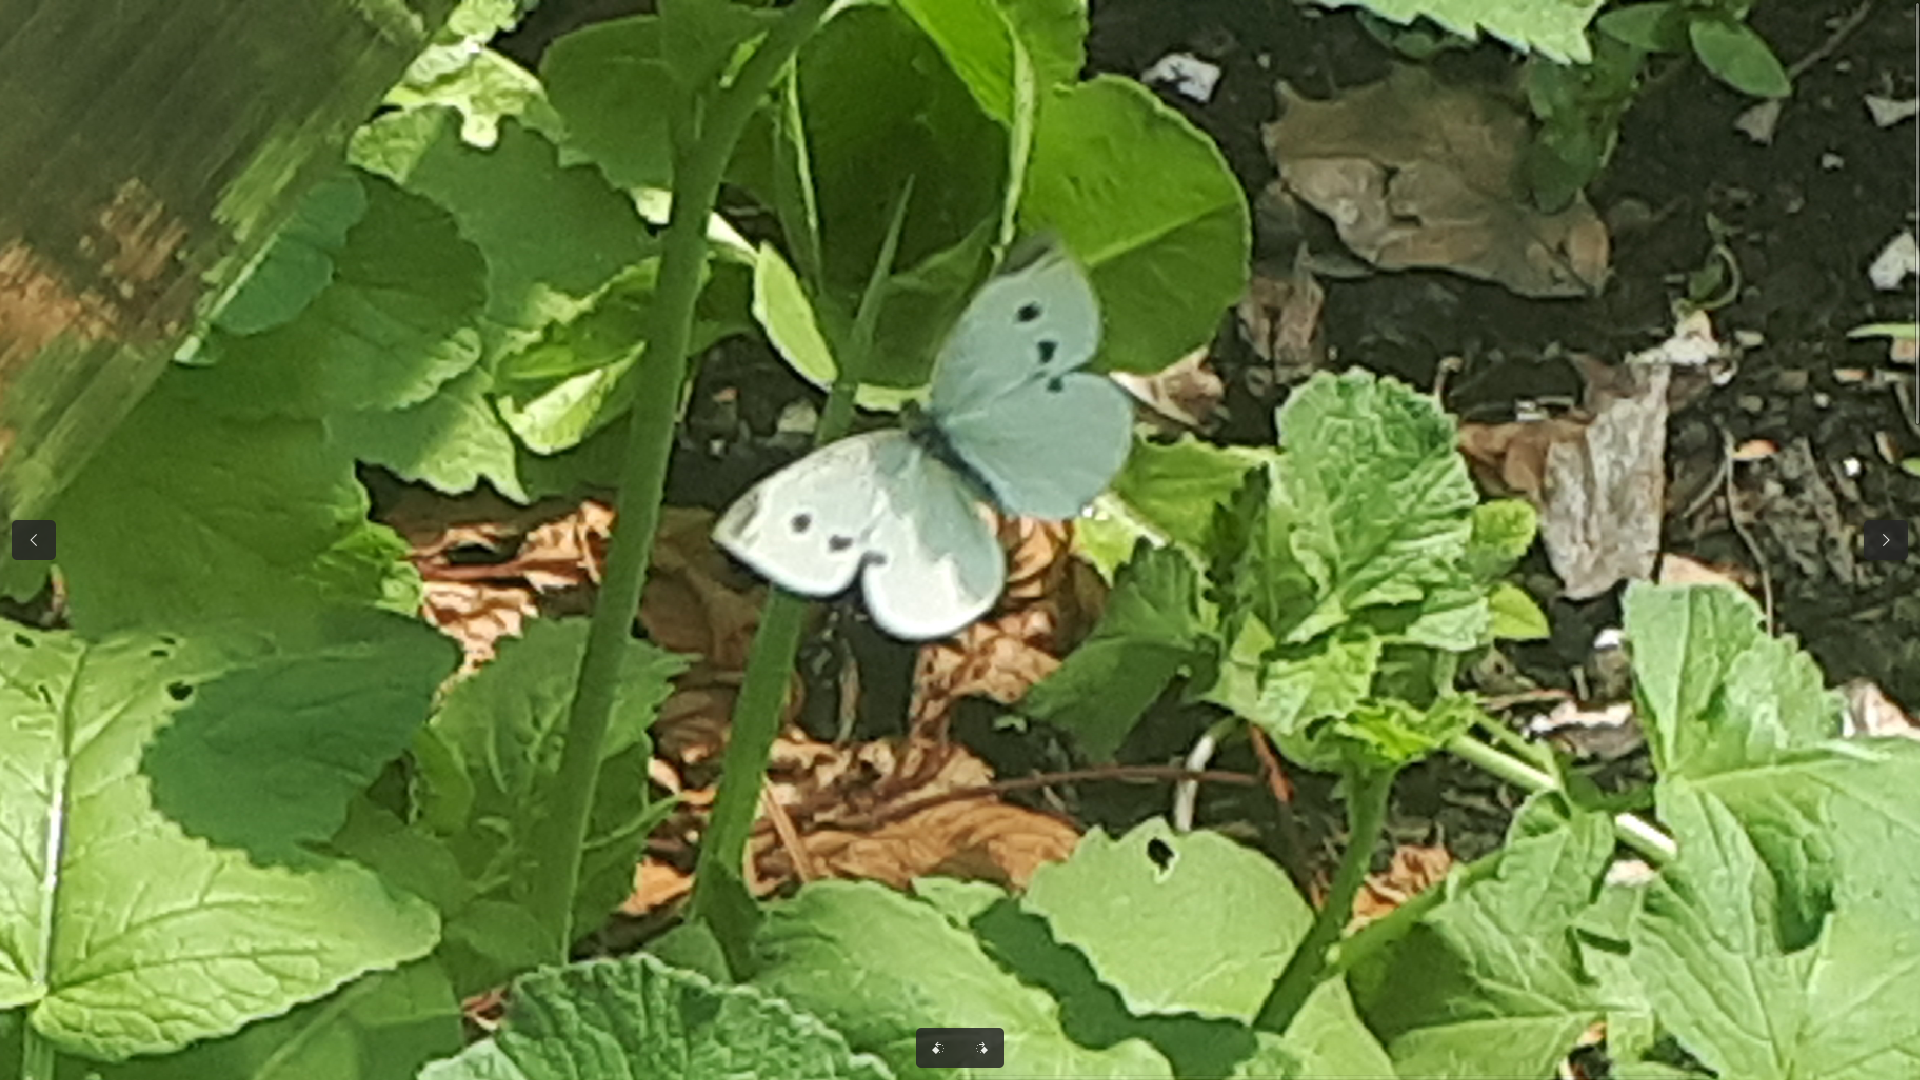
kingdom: Animalia
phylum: Arthropoda
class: Insecta
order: Lepidoptera
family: Pieridae
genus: Pieris
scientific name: Pieris rapae
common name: Small white
